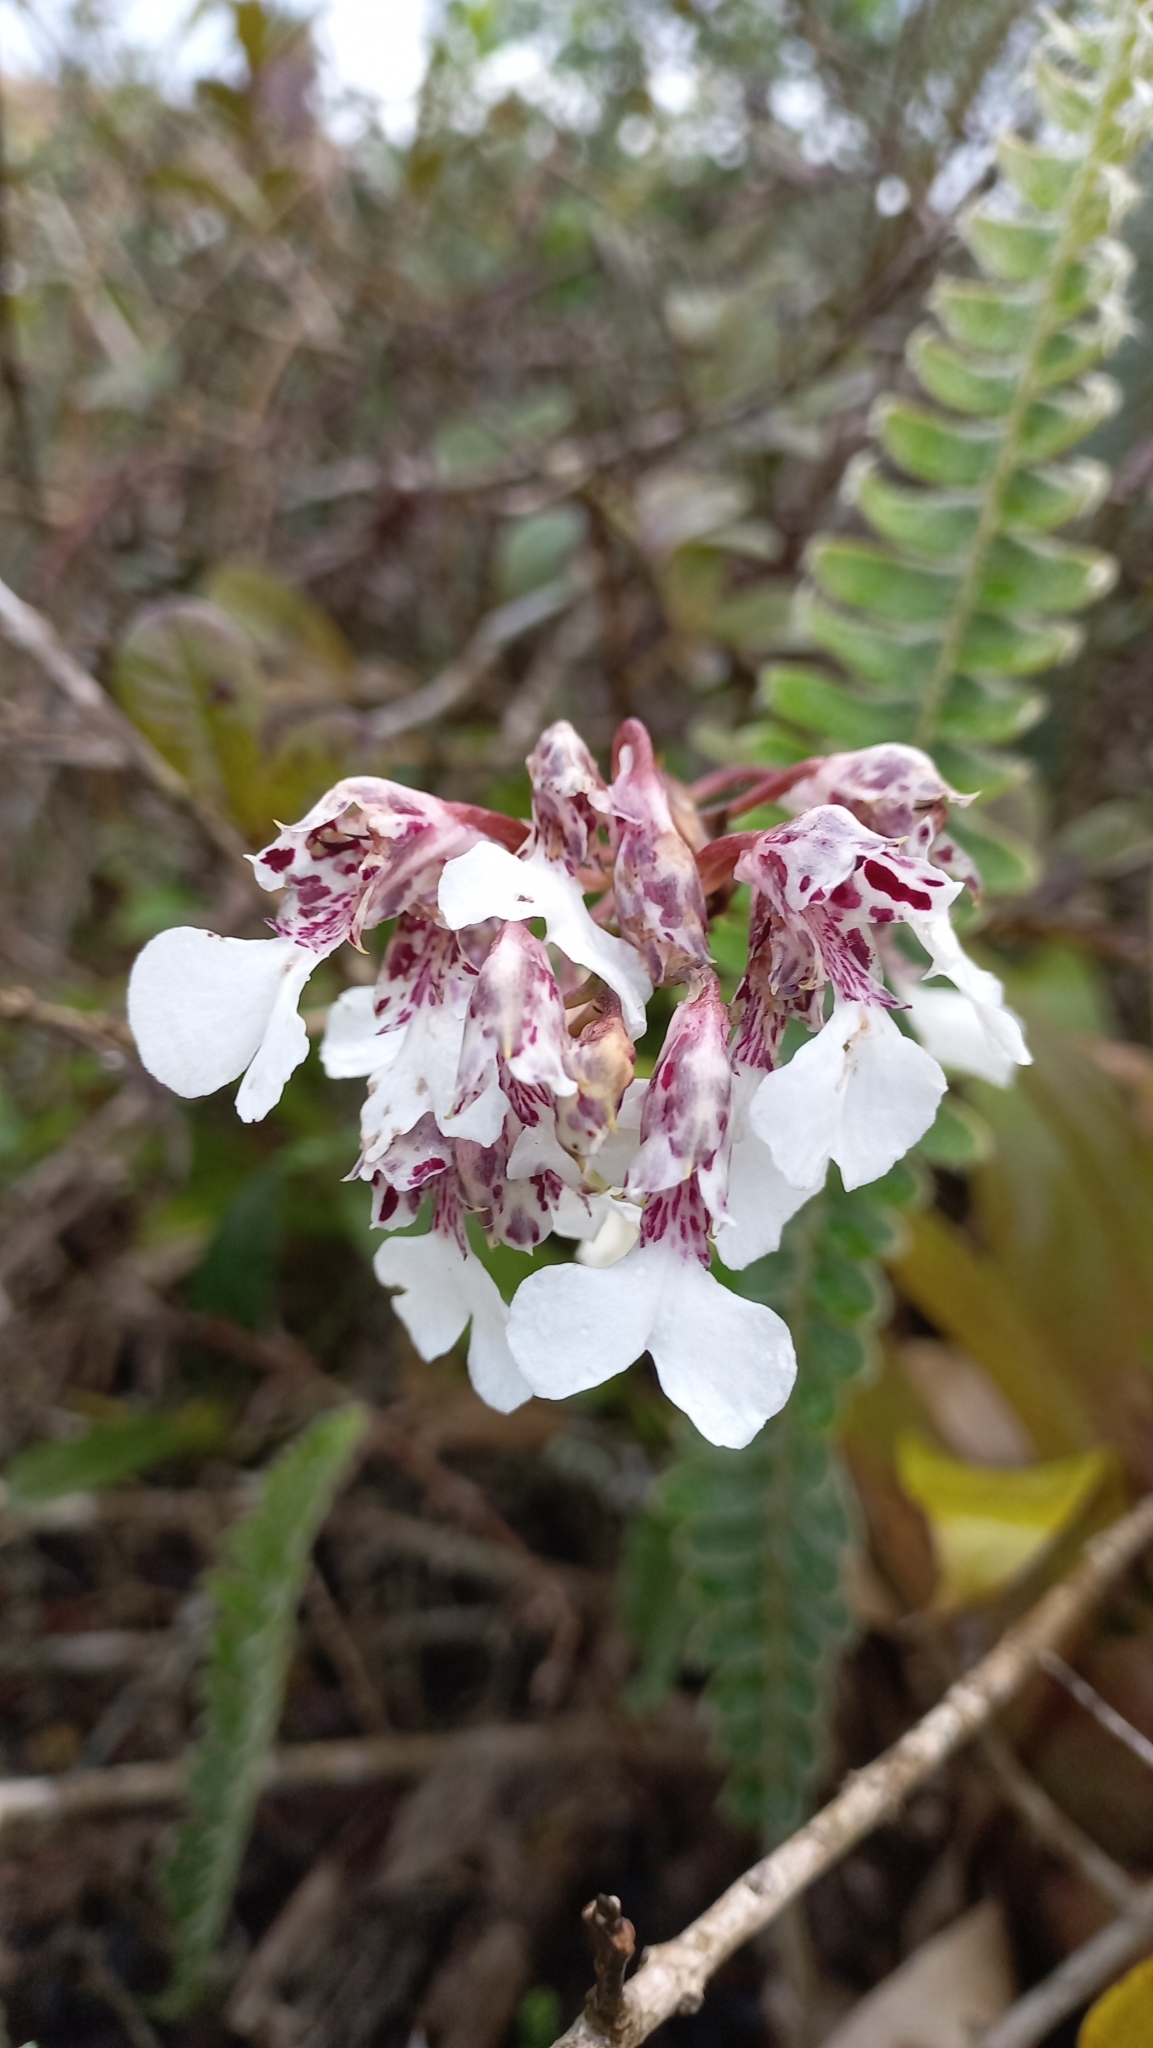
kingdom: Plantae
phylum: Tracheophyta
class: Liliopsida
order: Asparagales
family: Orchidaceae
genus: Rodriguezia
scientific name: Rodriguezia decora
